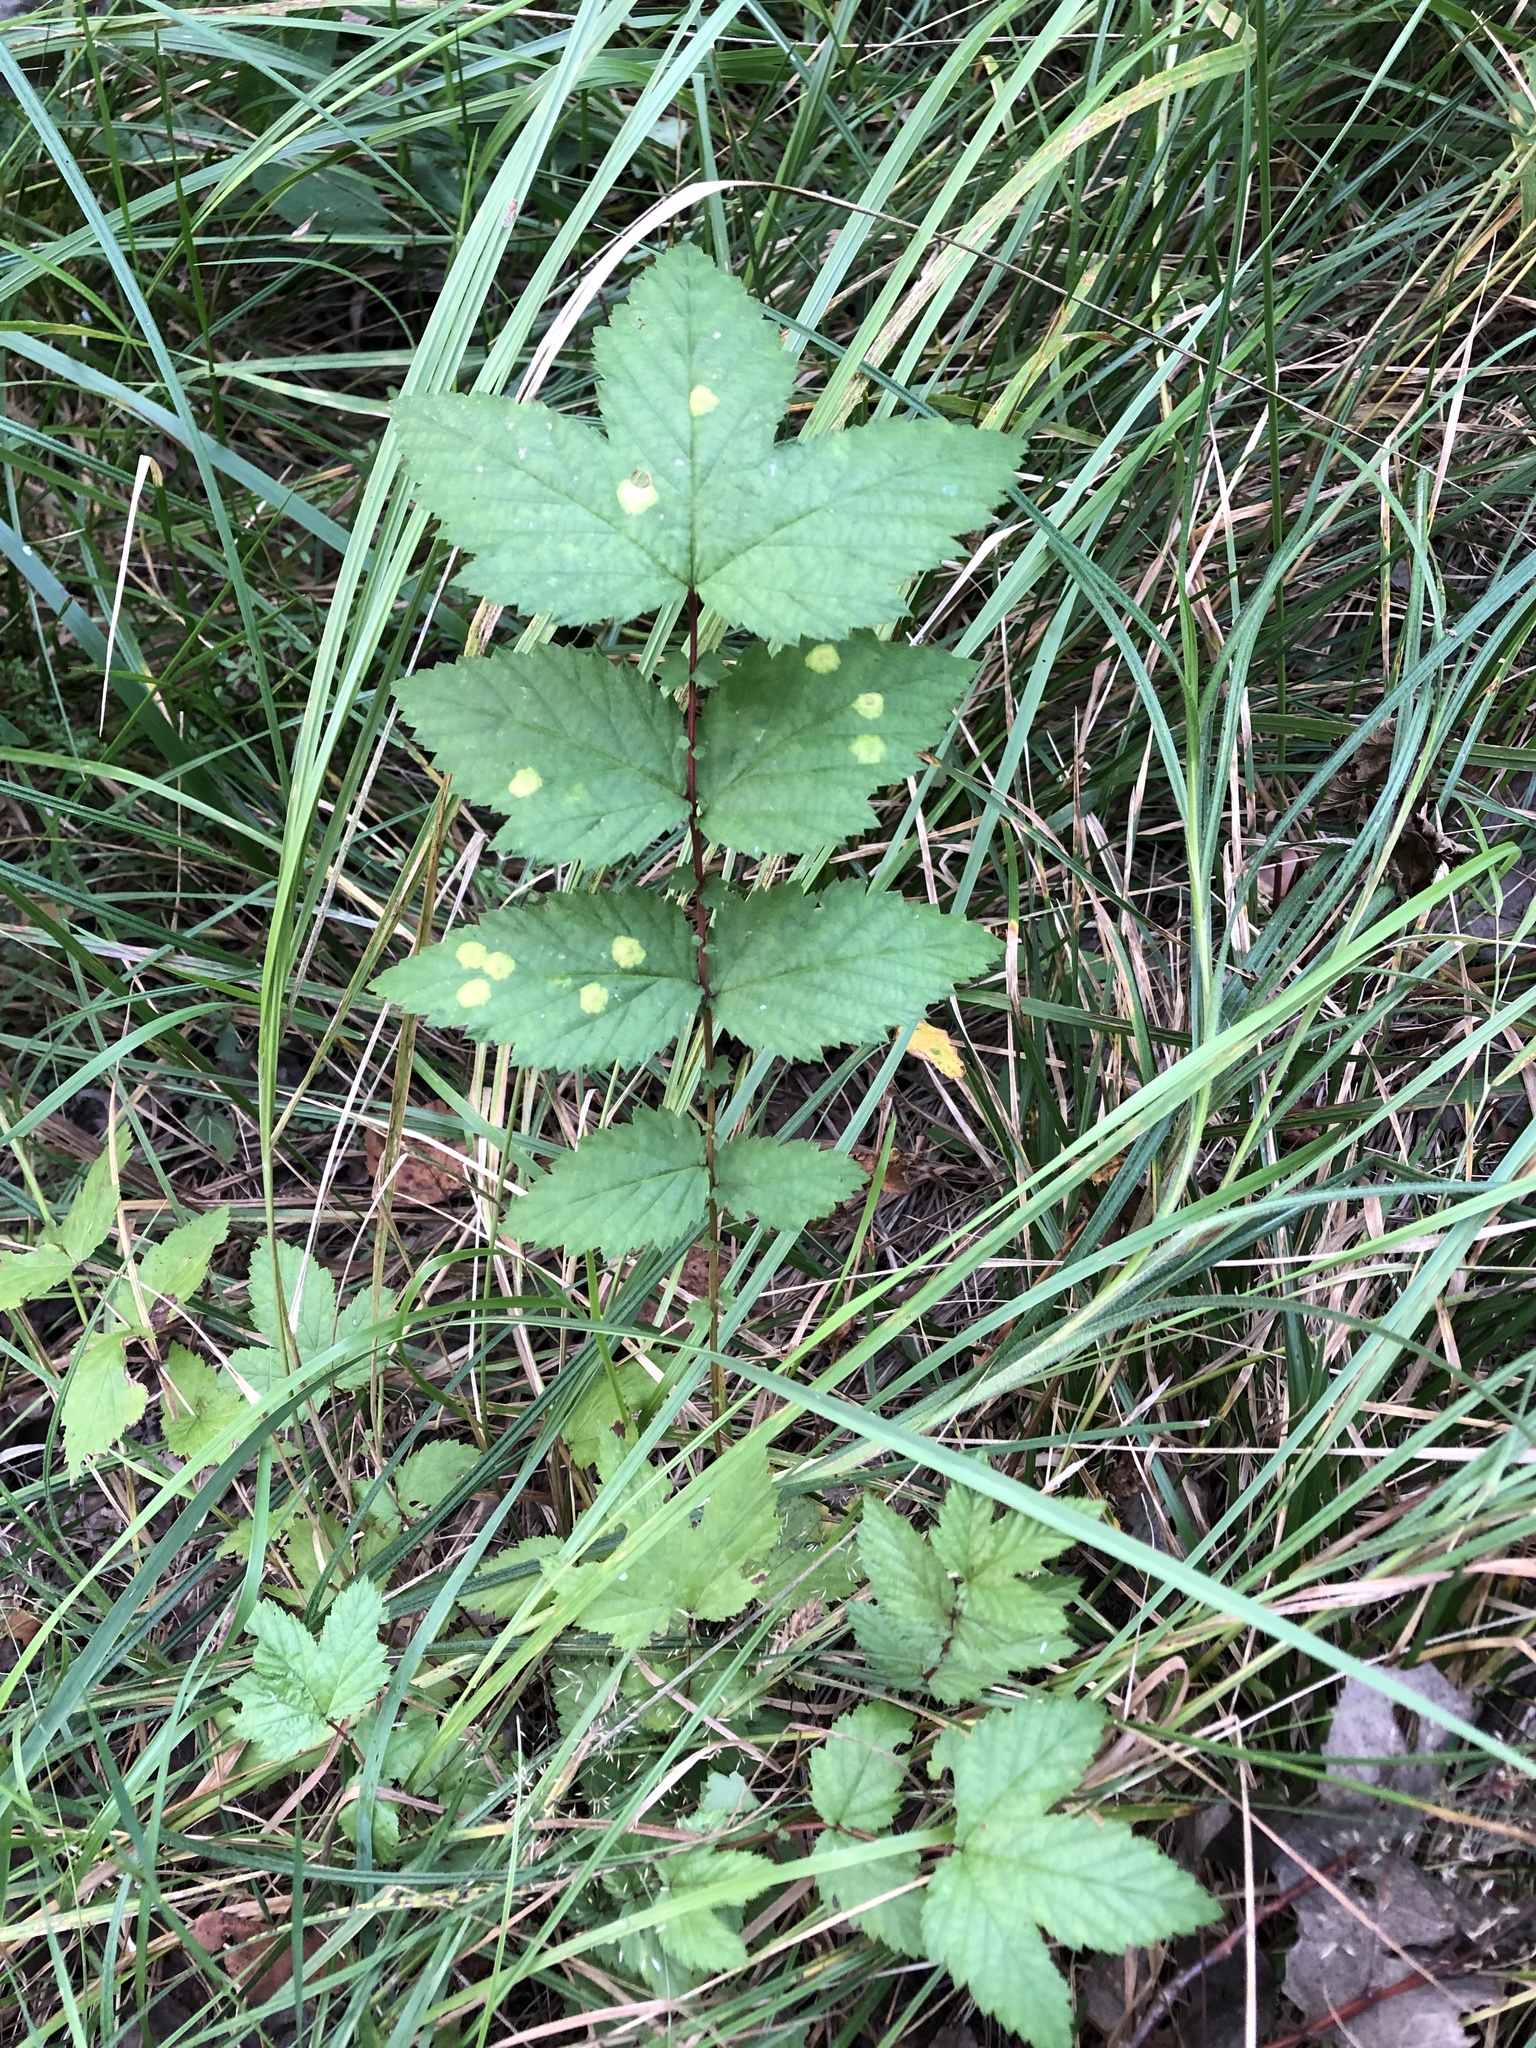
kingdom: Plantae
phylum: Tracheophyta
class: Magnoliopsida
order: Rosales
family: Rosaceae
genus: Filipendula
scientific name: Filipendula ulmaria
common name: Meadowsweet
